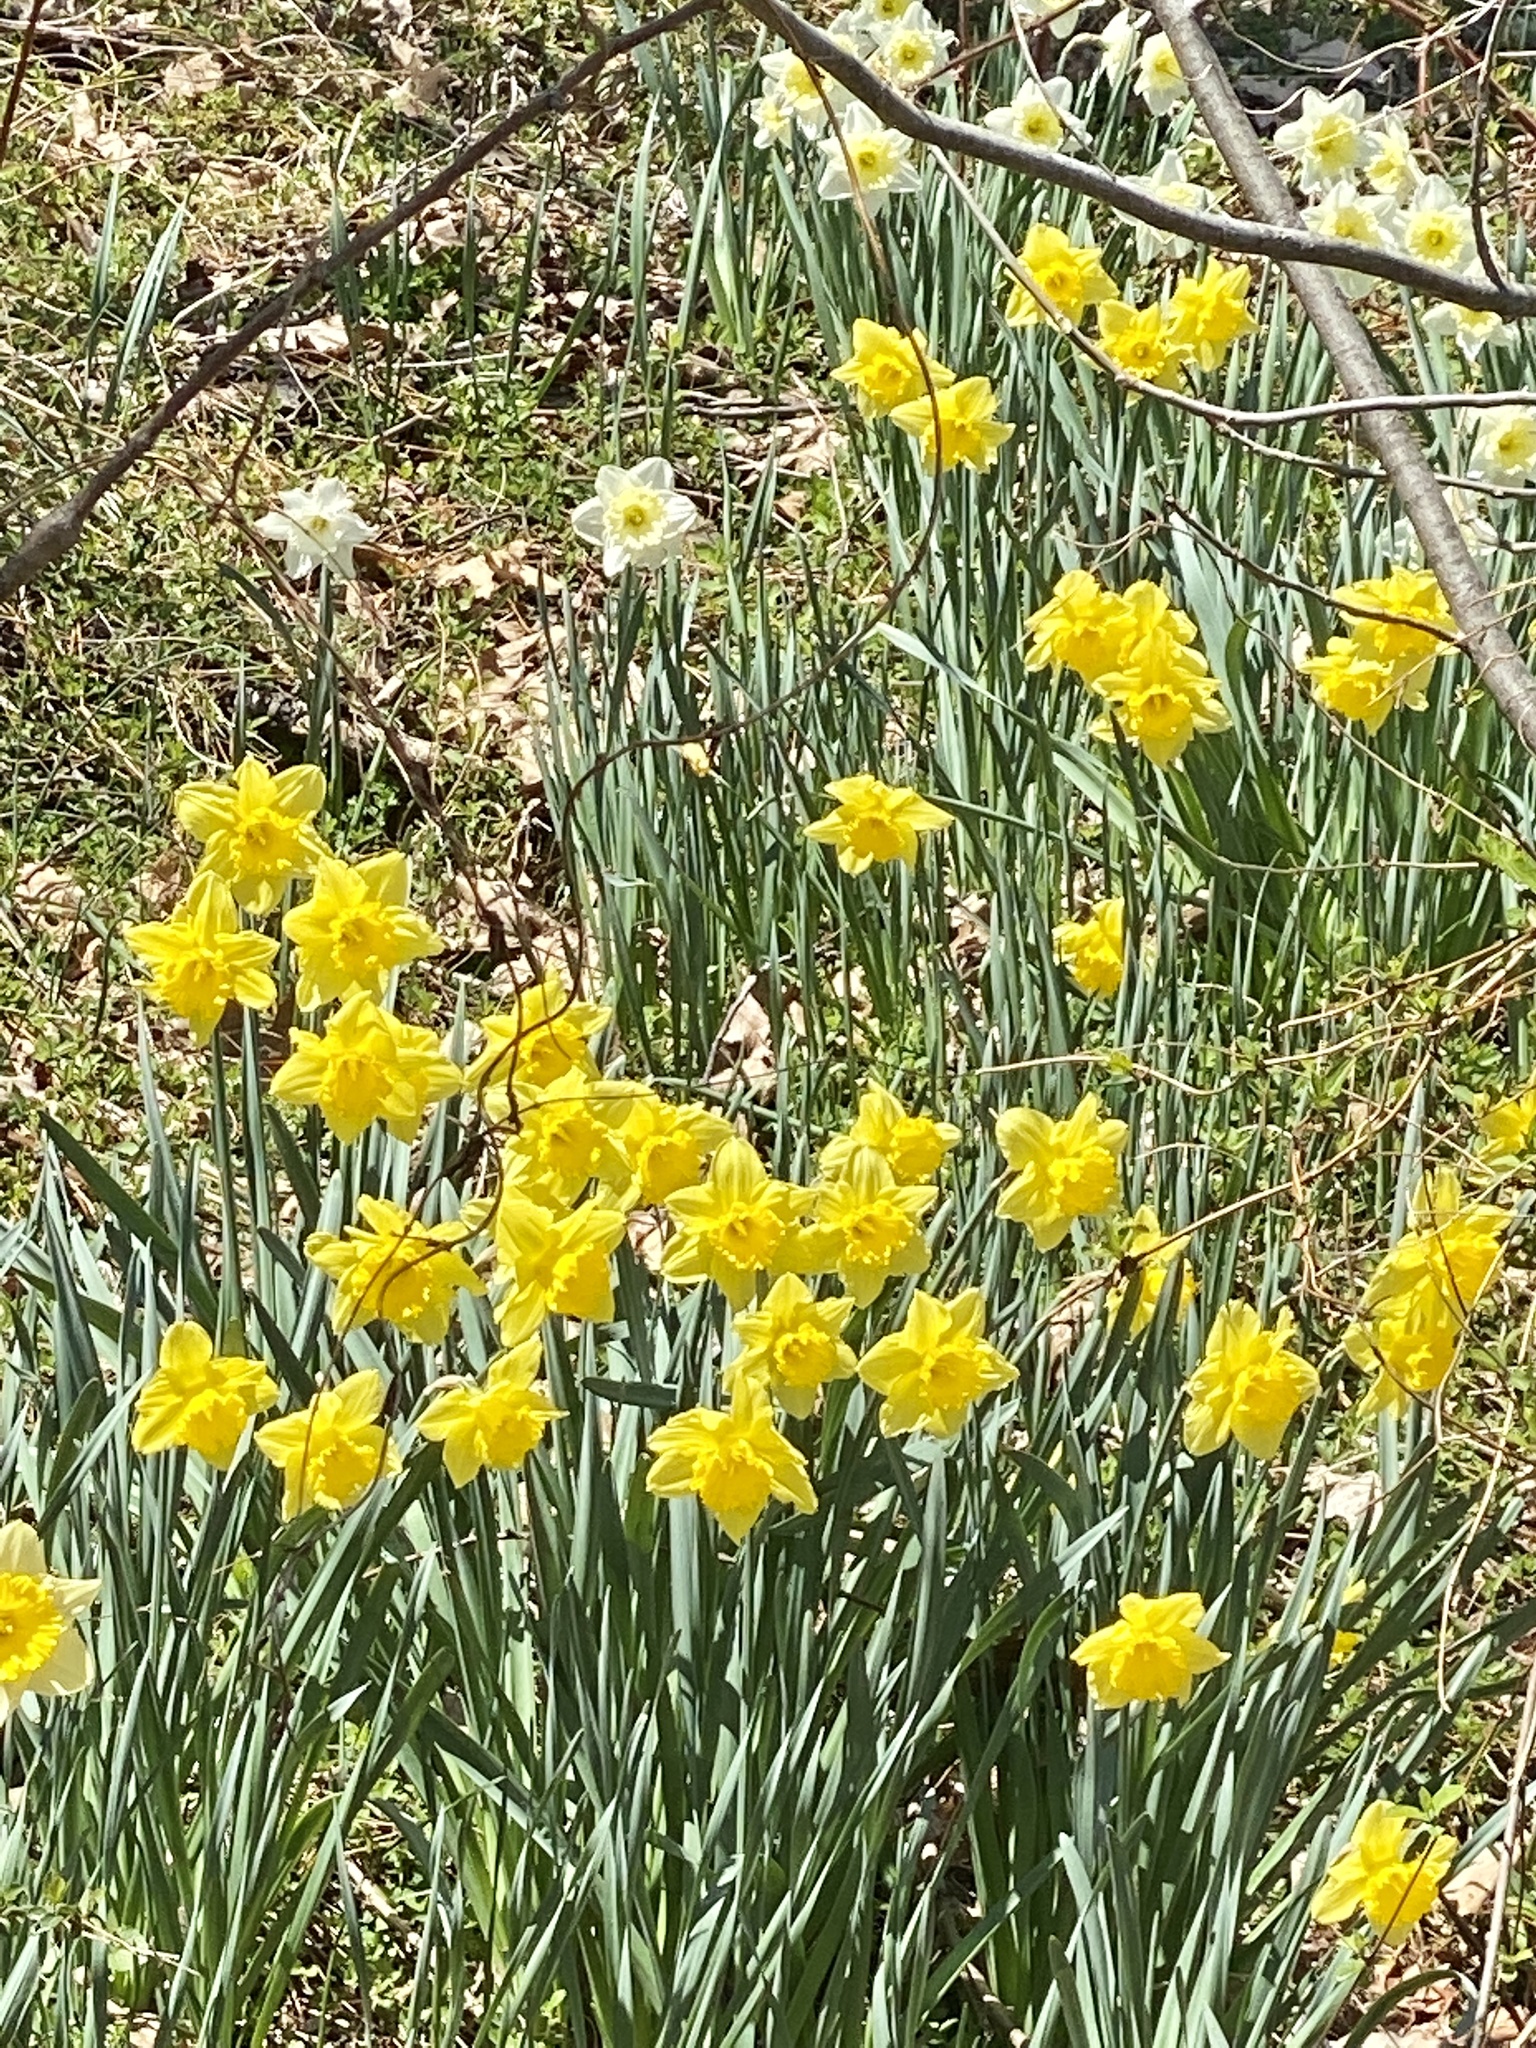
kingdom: Plantae
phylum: Tracheophyta
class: Liliopsida
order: Asparagales
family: Amaryllidaceae
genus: Narcissus
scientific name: Narcissus
